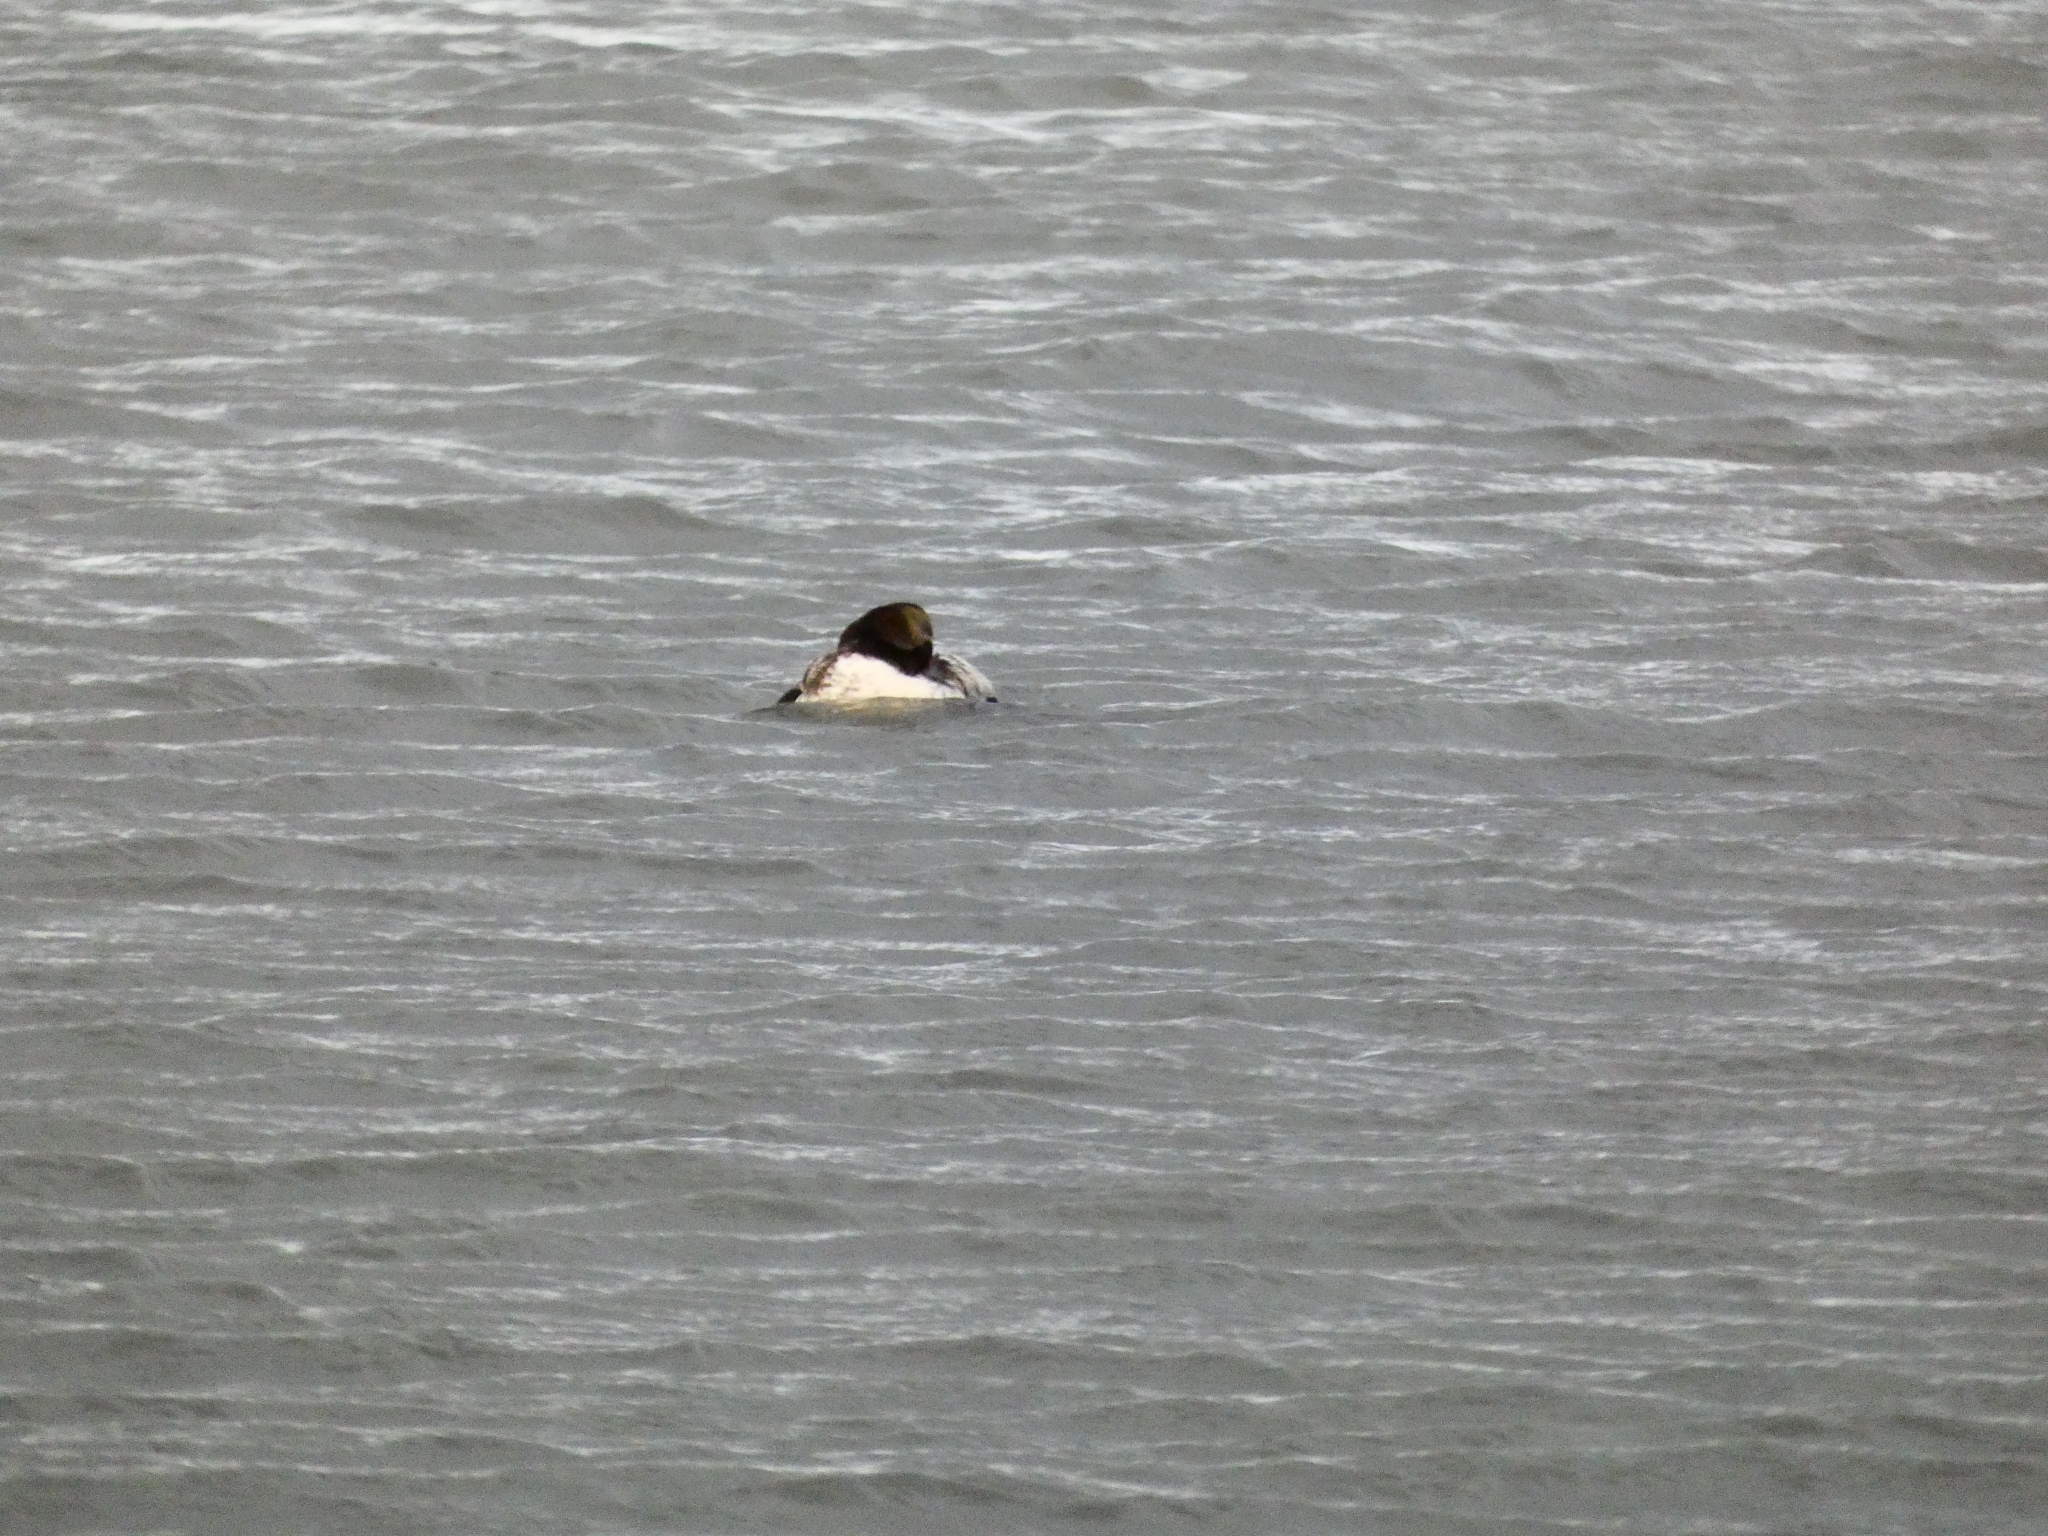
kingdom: Animalia
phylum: Chordata
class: Aves
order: Anseriformes
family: Anatidae
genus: Somateria
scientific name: Somateria mollissima
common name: Common eider
